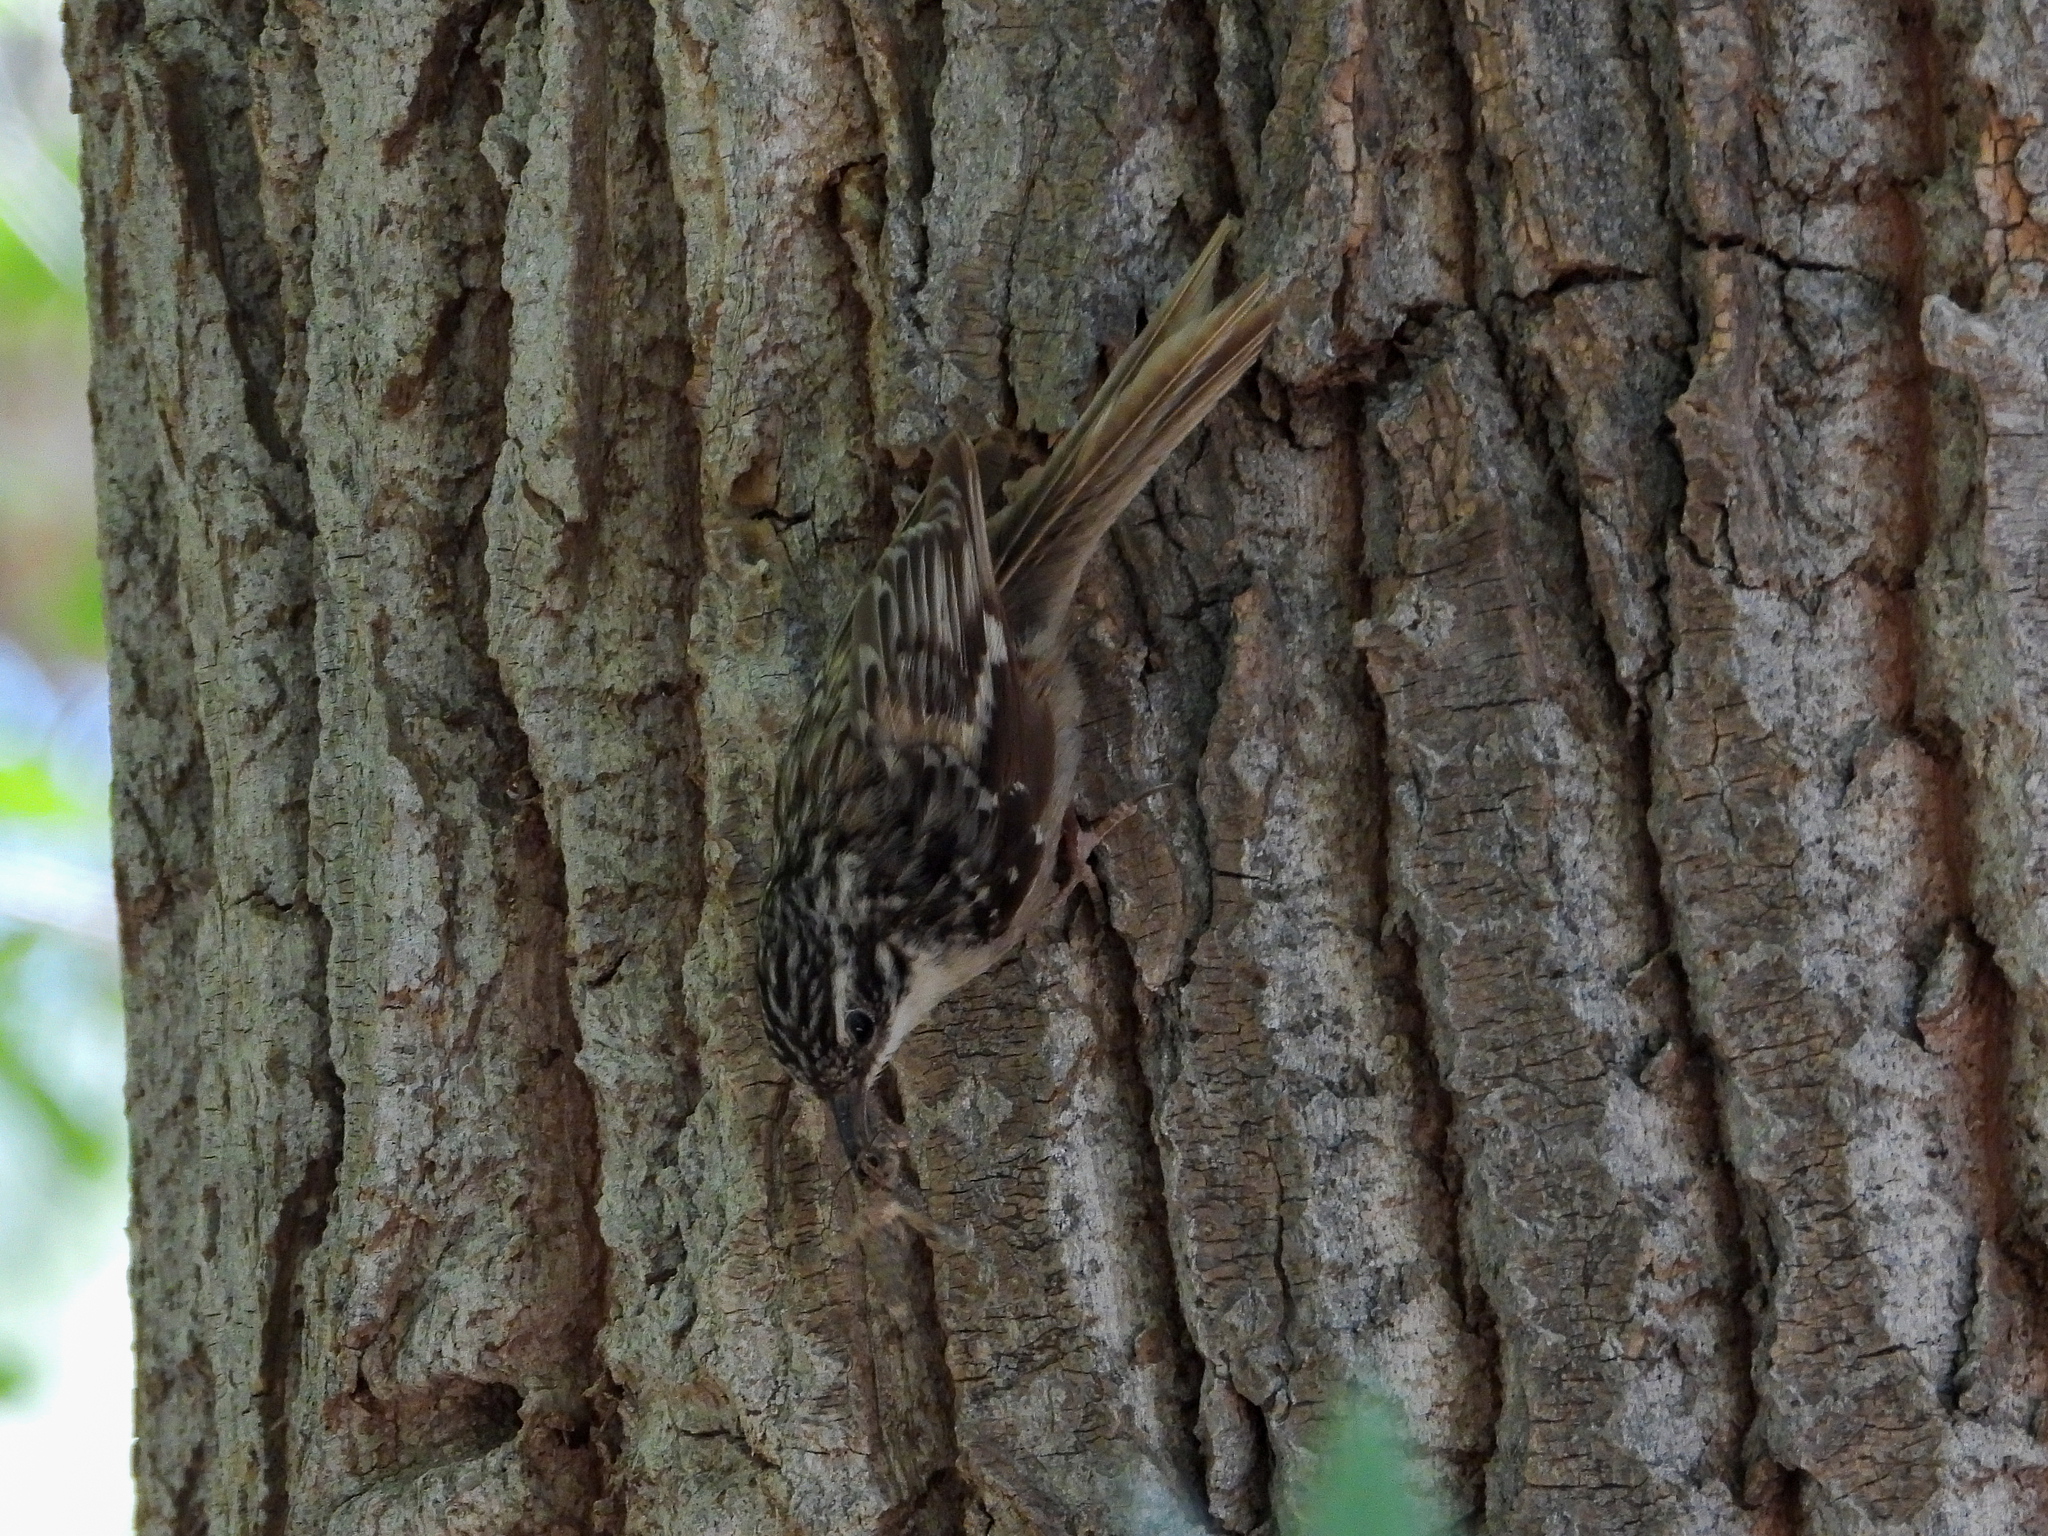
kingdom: Animalia
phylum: Chordata
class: Aves
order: Passeriformes
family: Certhiidae
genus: Certhia
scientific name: Certhia americana
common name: Brown creeper
